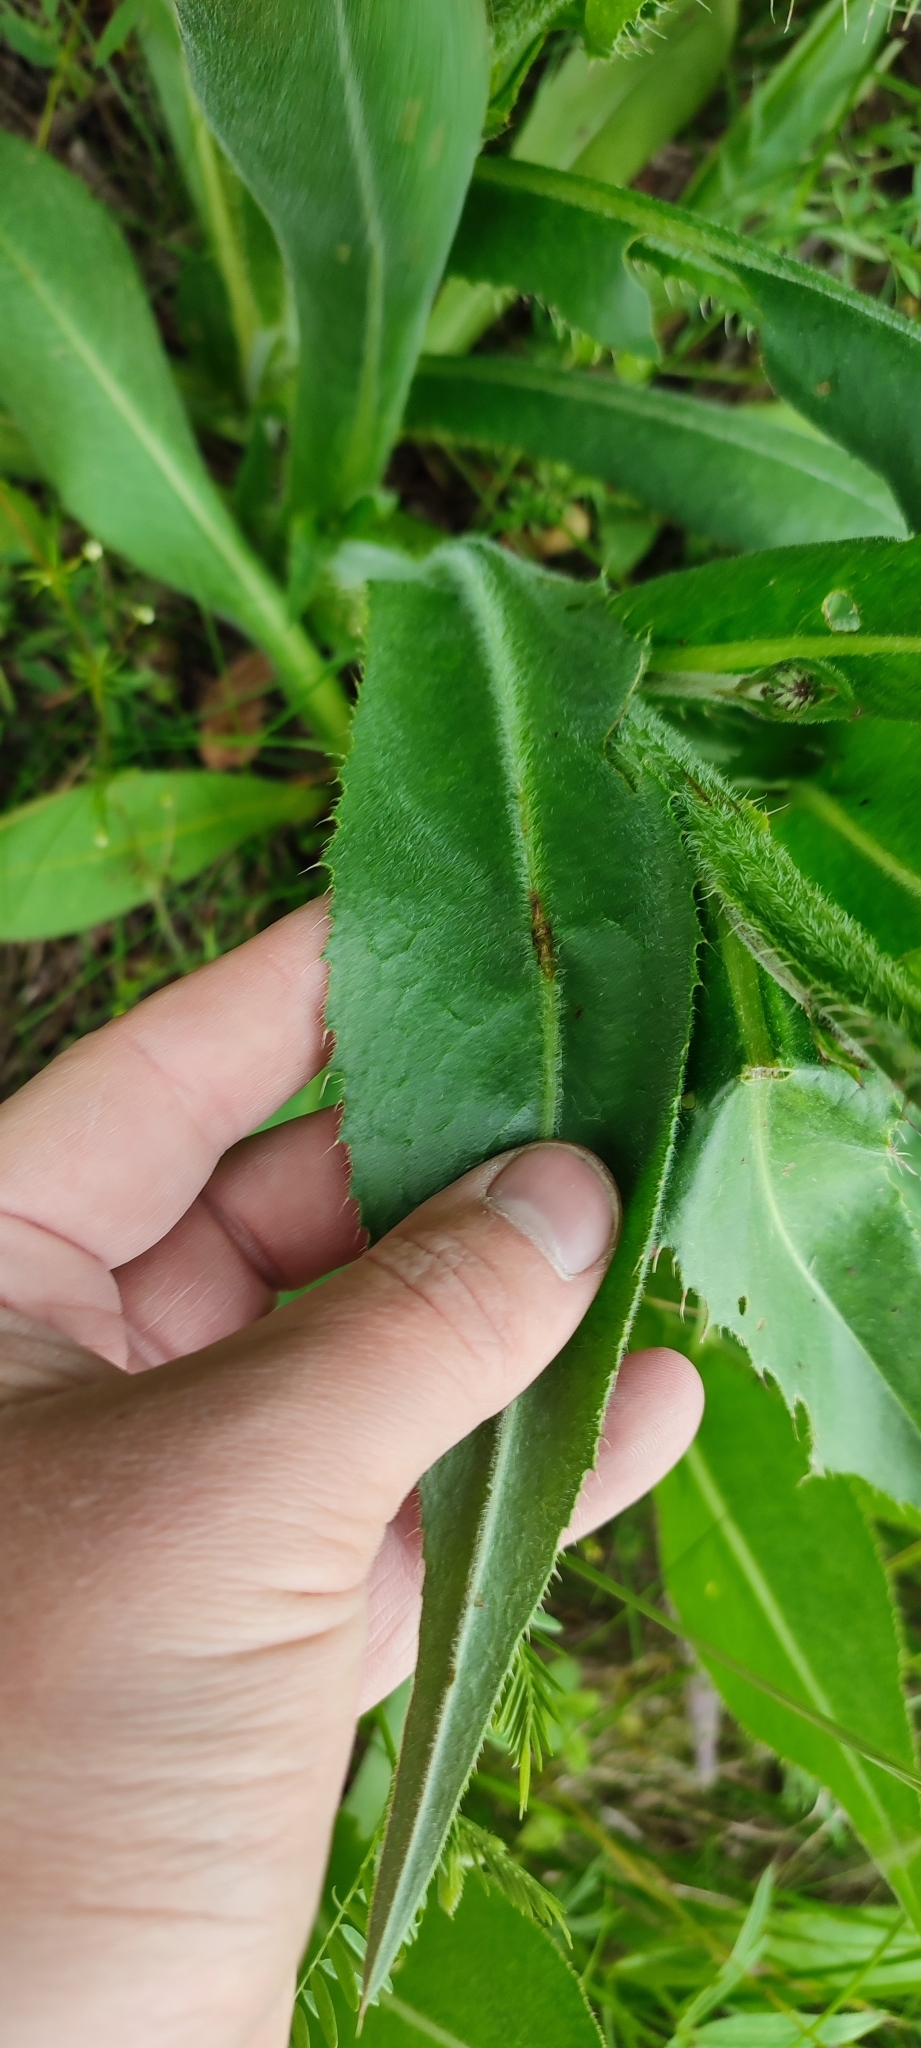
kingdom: Plantae
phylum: Tracheophyta
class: Magnoliopsida
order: Asterales
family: Asteraceae
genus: Cirsium
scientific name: Cirsium canum
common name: Queen anne's thistle
